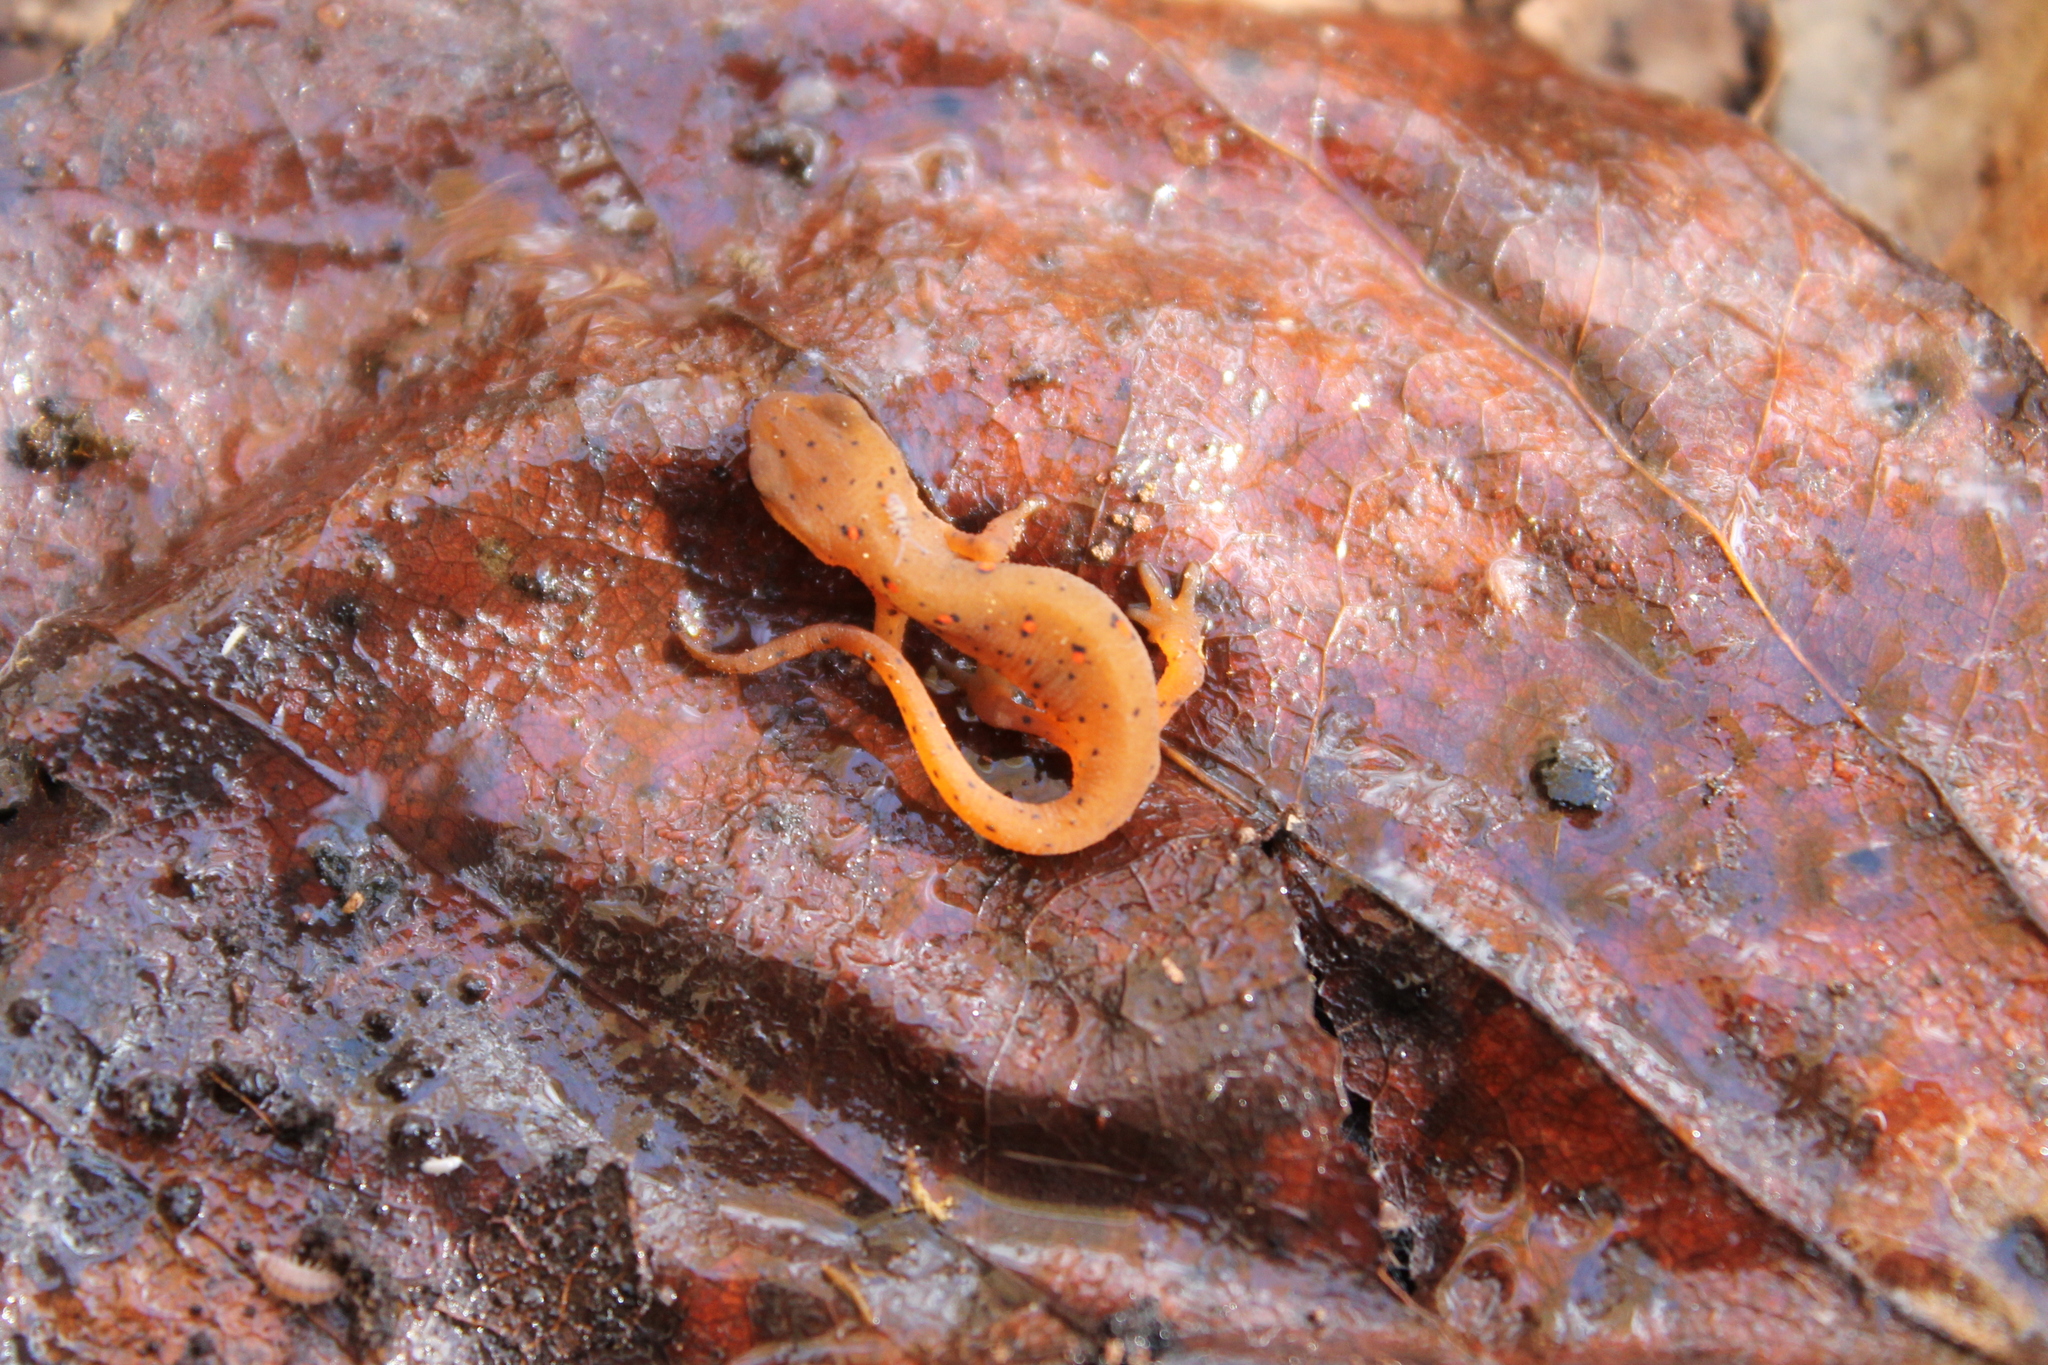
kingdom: Animalia
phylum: Chordata
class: Amphibia
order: Caudata
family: Salamandridae
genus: Notophthalmus
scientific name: Notophthalmus viridescens
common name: Eastern newt
